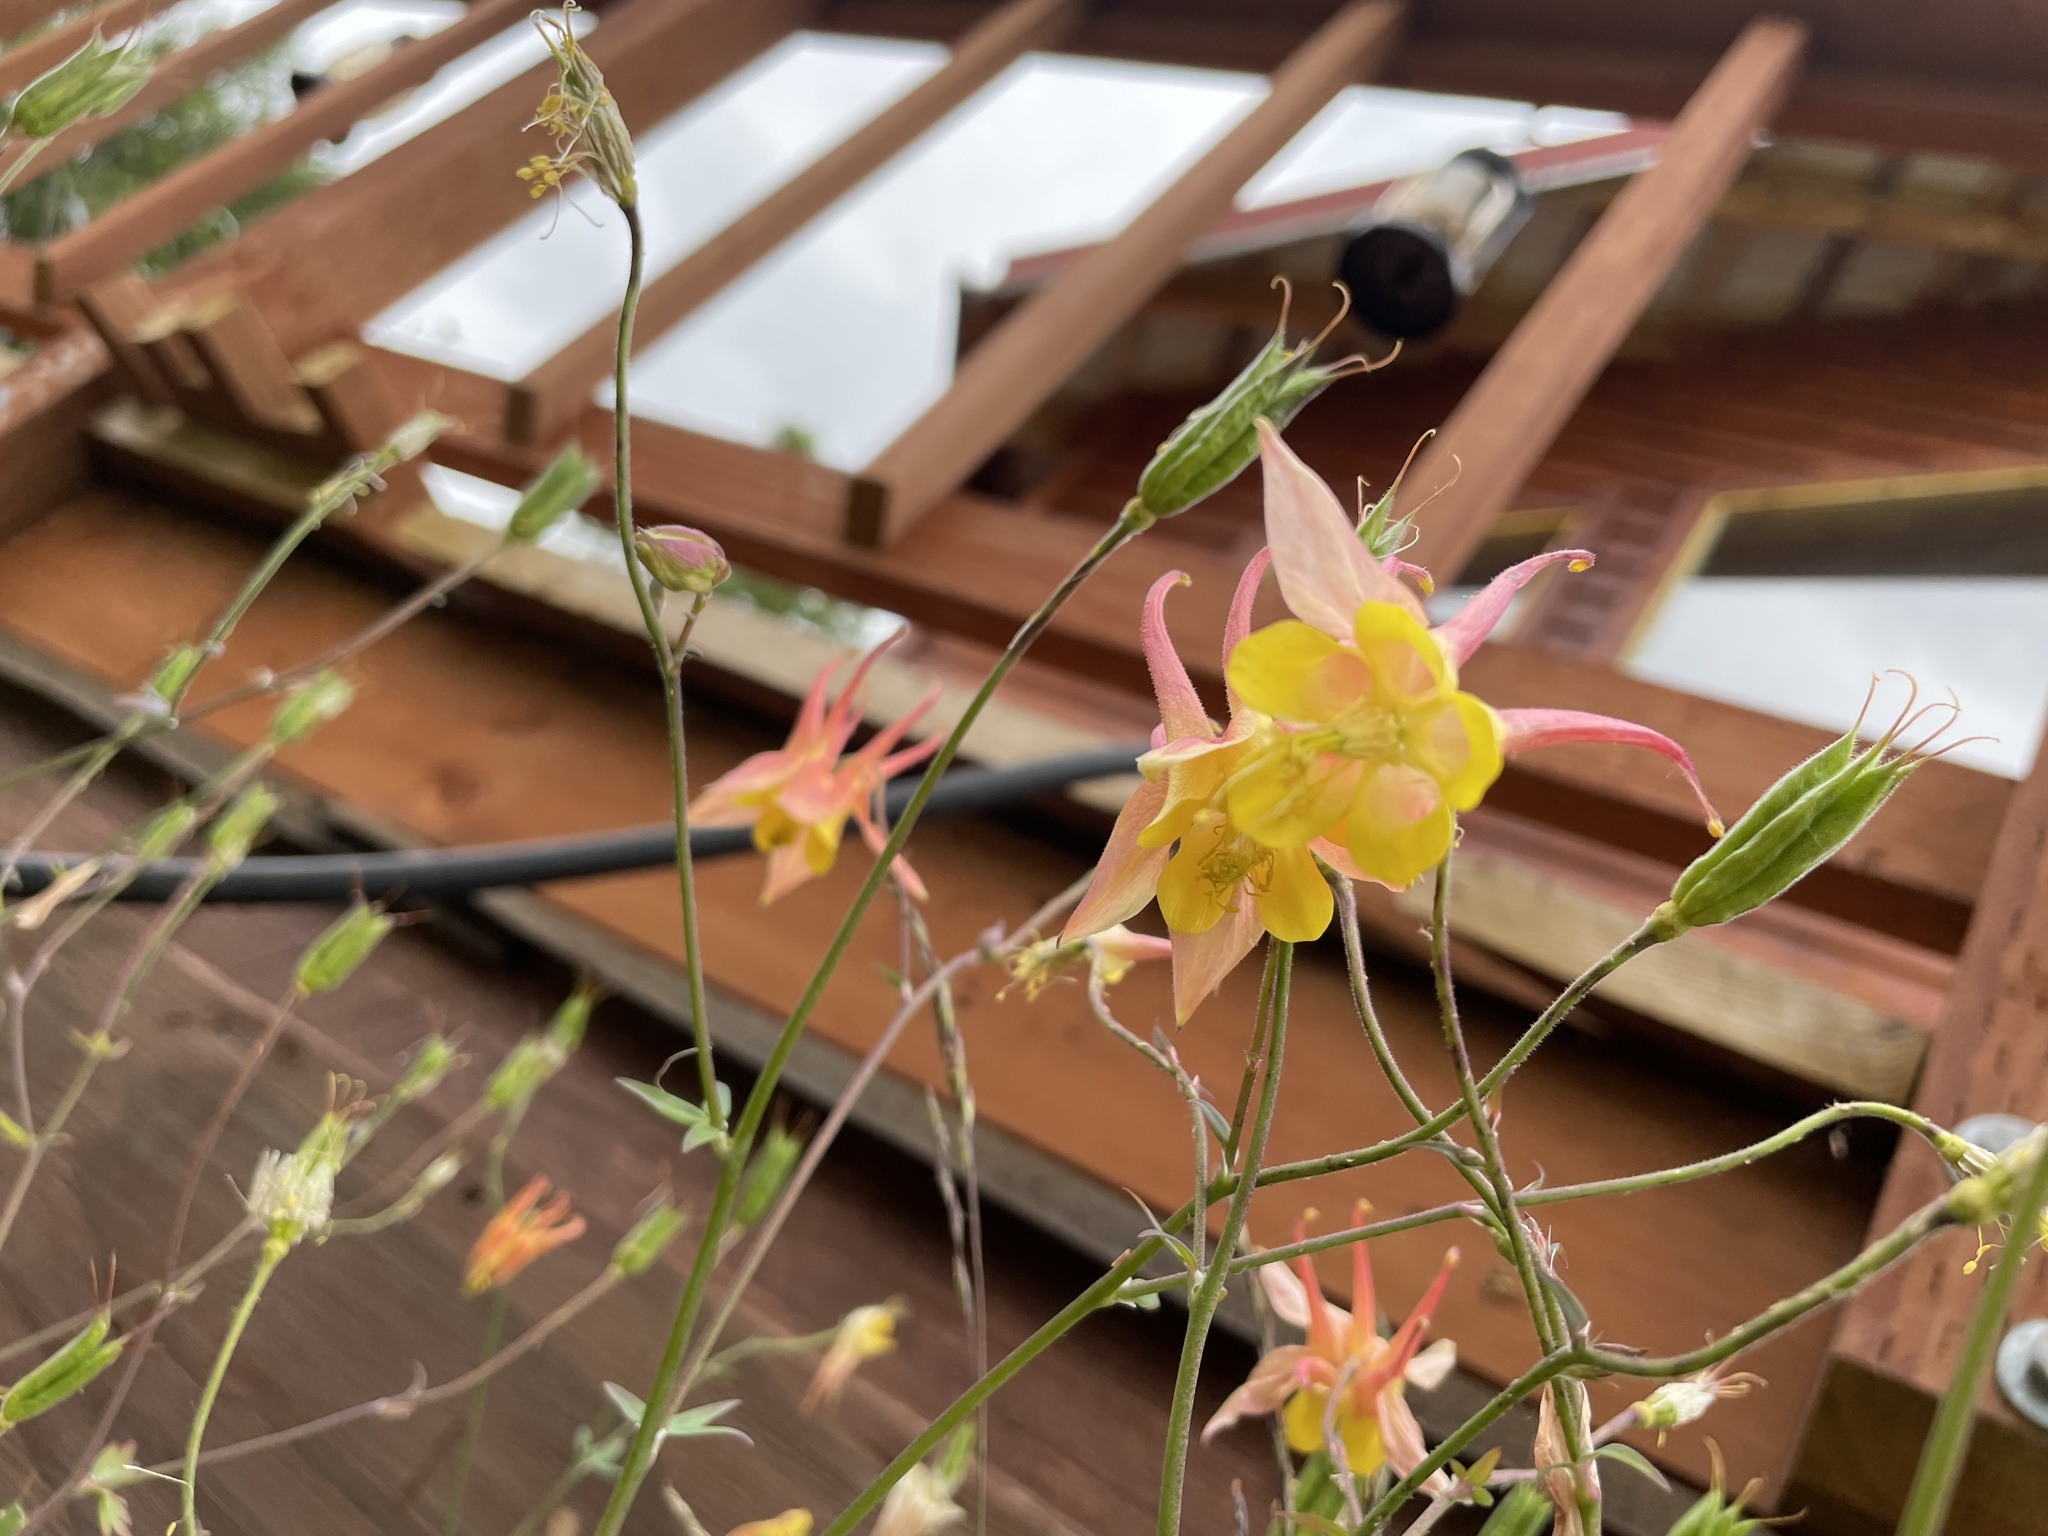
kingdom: Plantae
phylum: Tracheophyta
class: Magnoliopsida
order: Ranunculales
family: Ranunculaceae
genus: Aquilegia
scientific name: Aquilegia formosa
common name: Sitka columbine
